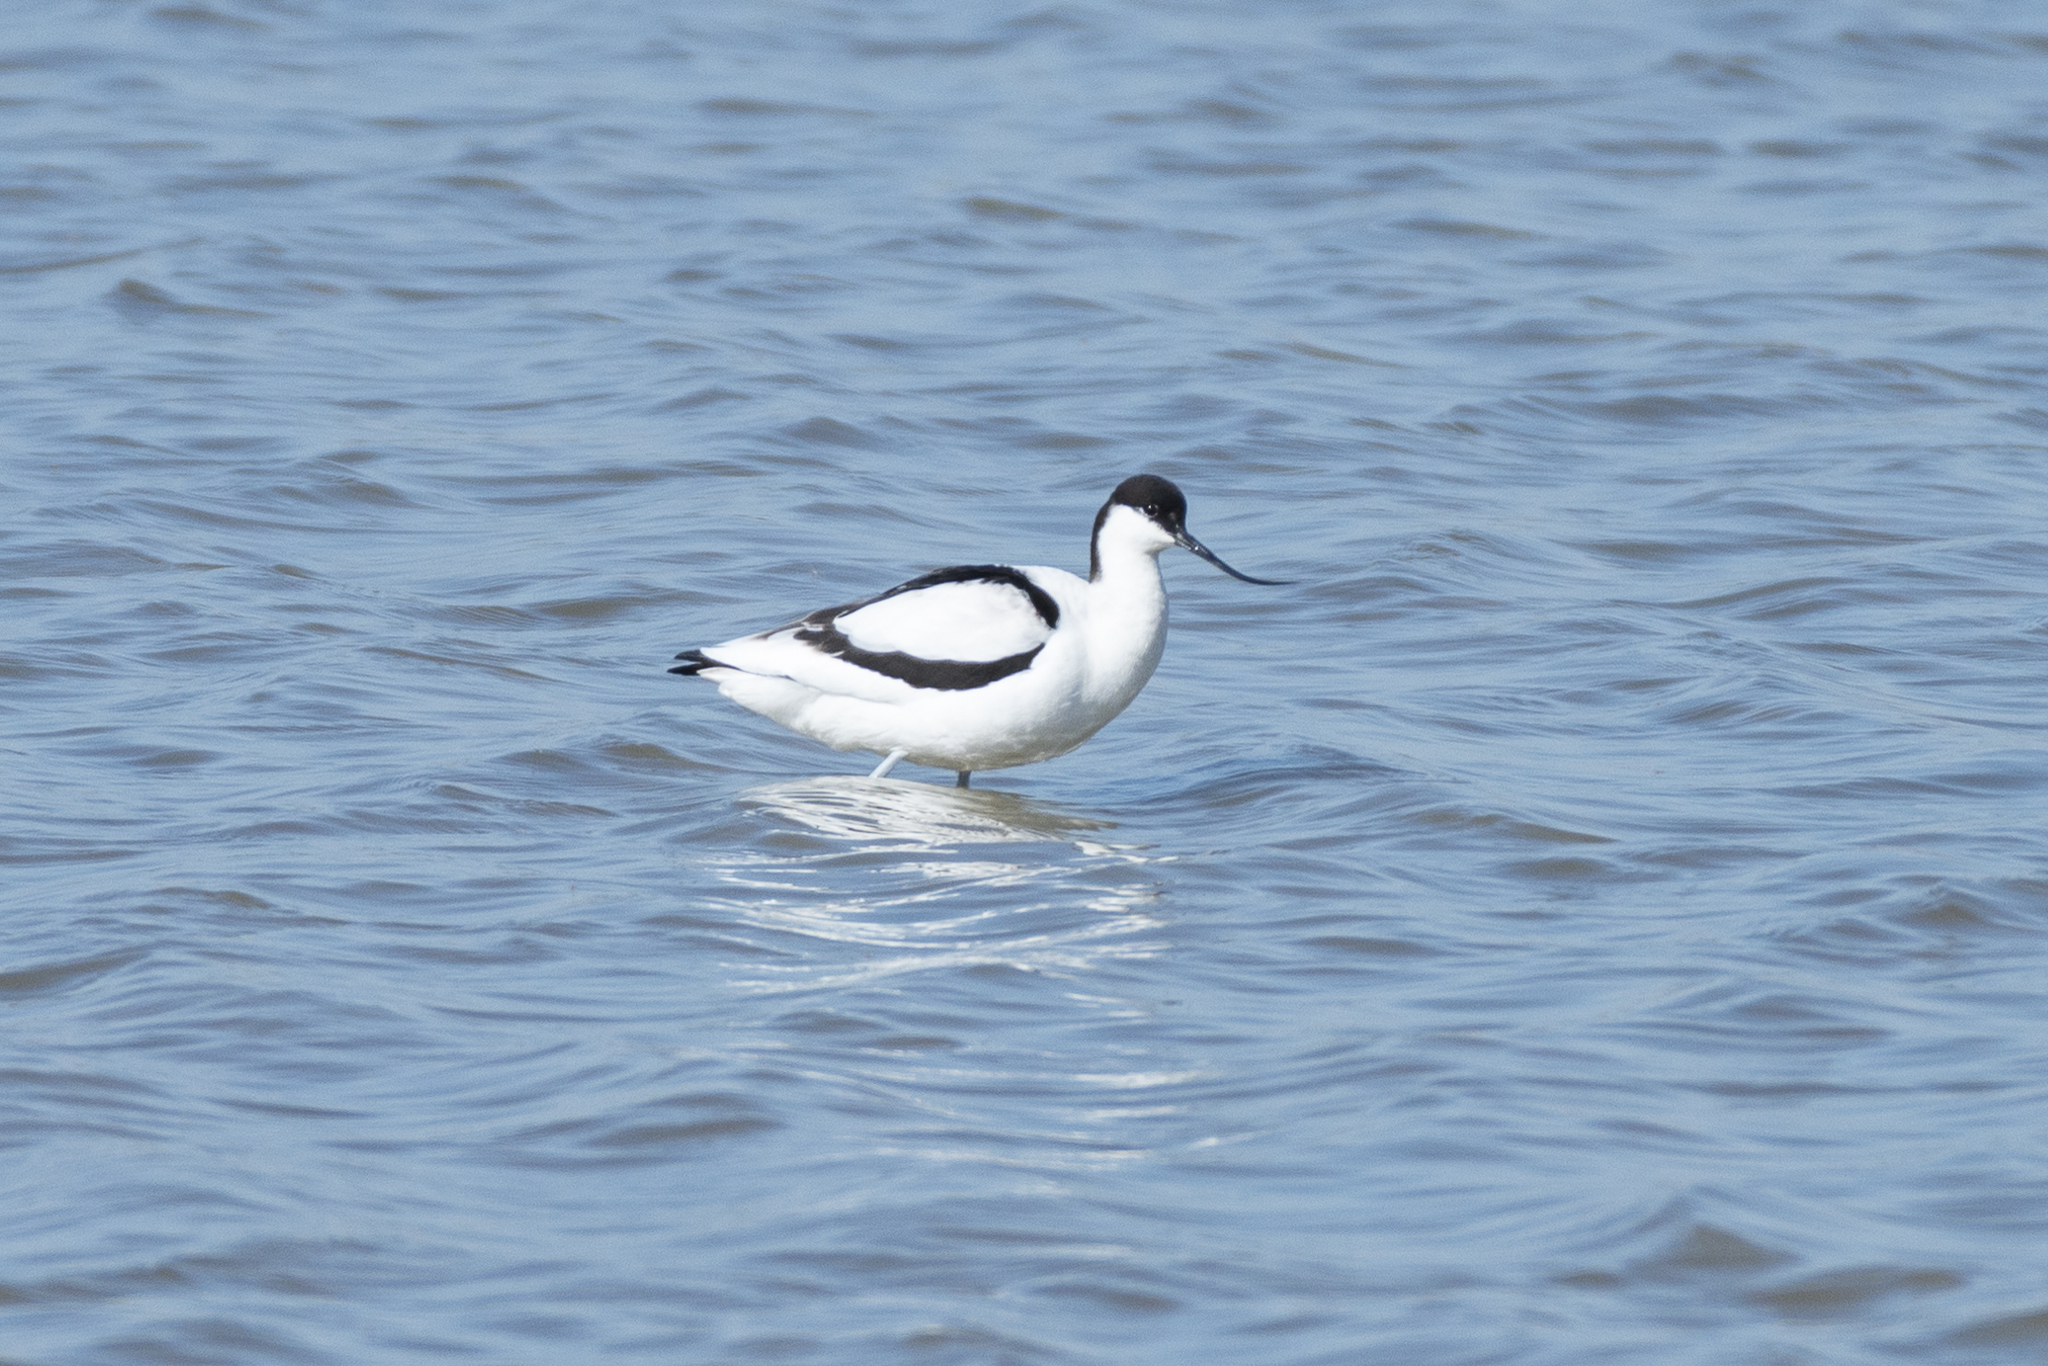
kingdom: Animalia
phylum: Chordata
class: Aves
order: Charadriiformes
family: Recurvirostridae
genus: Recurvirostra
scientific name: Recurvirostra avosetta
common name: Pied avocet
